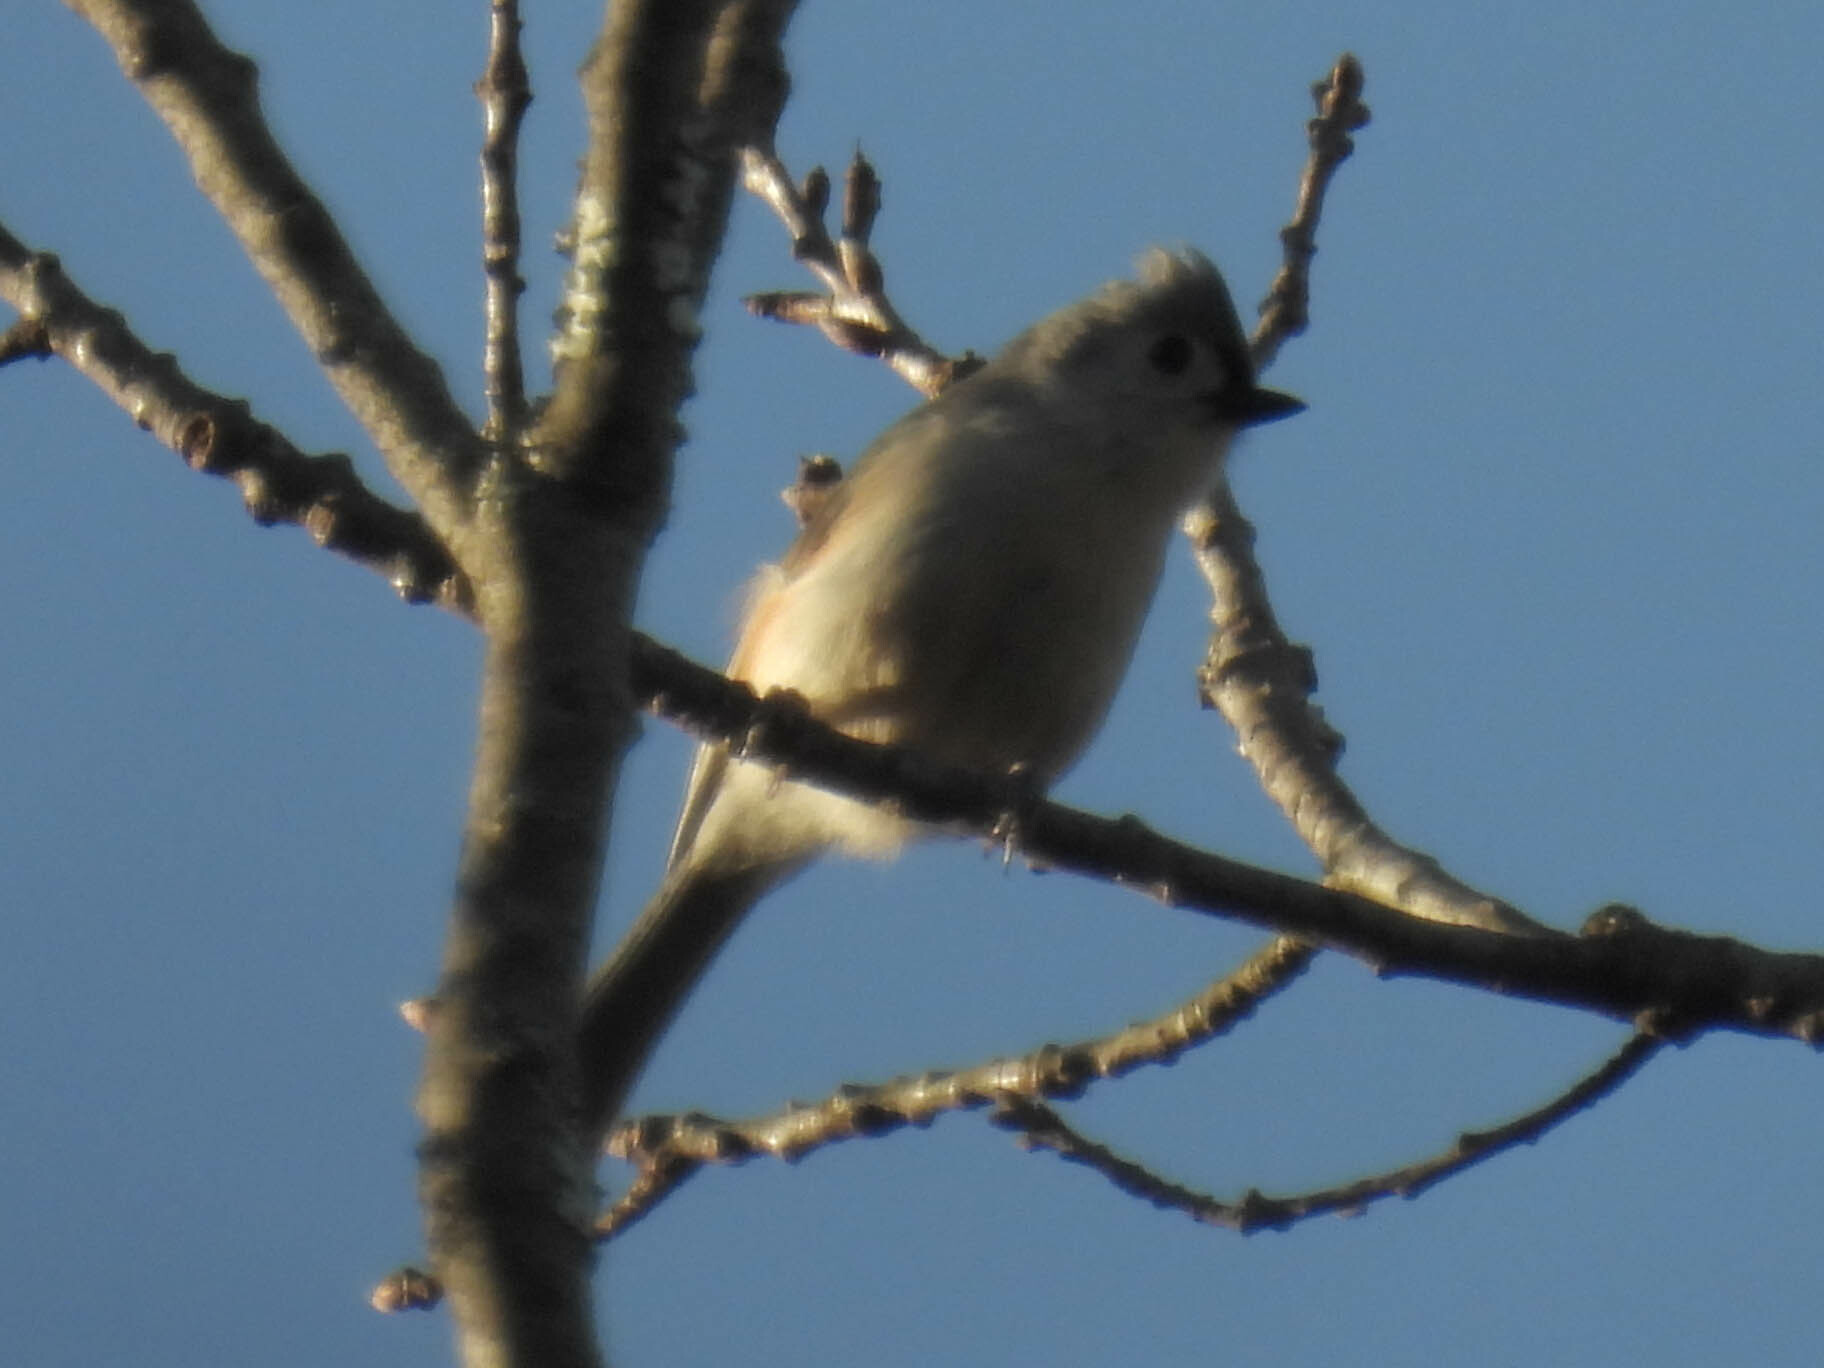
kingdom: Animalia
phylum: Chordata
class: Aves
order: Passeriformes
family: Paridae
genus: Baeolophus
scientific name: Baeolophus bicolor
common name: Tufted titmouse
